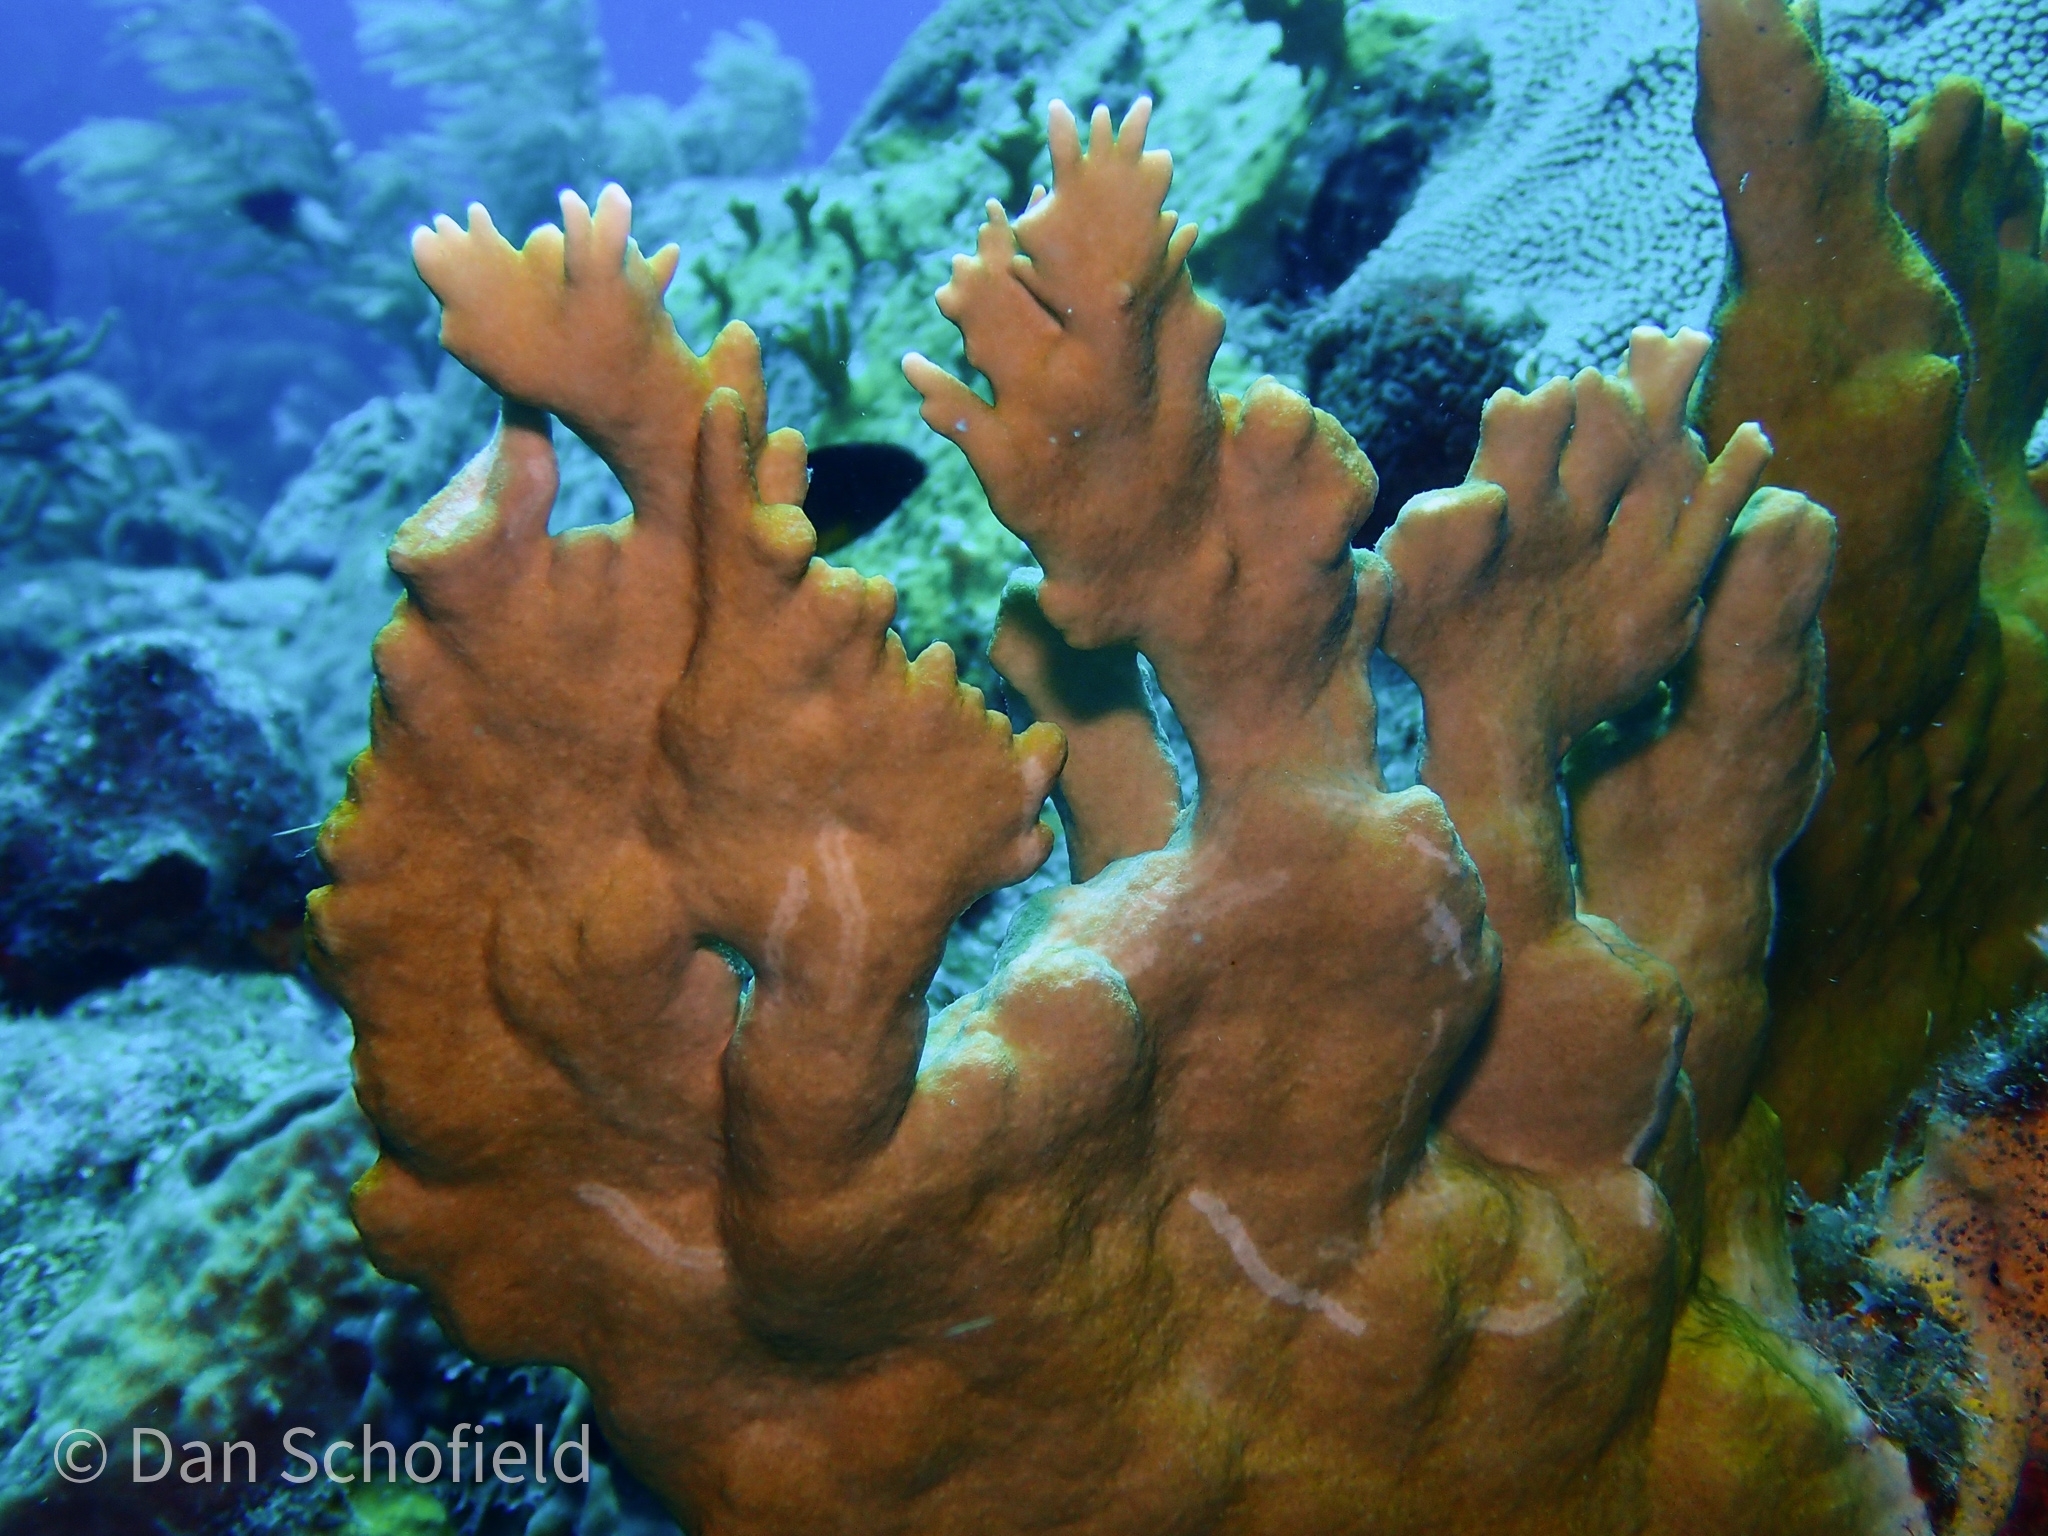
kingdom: Animalia
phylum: Cnidaria
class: Hydrozoa
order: Anthoathecata
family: Milleporidae
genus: Millepora
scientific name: Millepora alcicornis
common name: Branching fire coral
